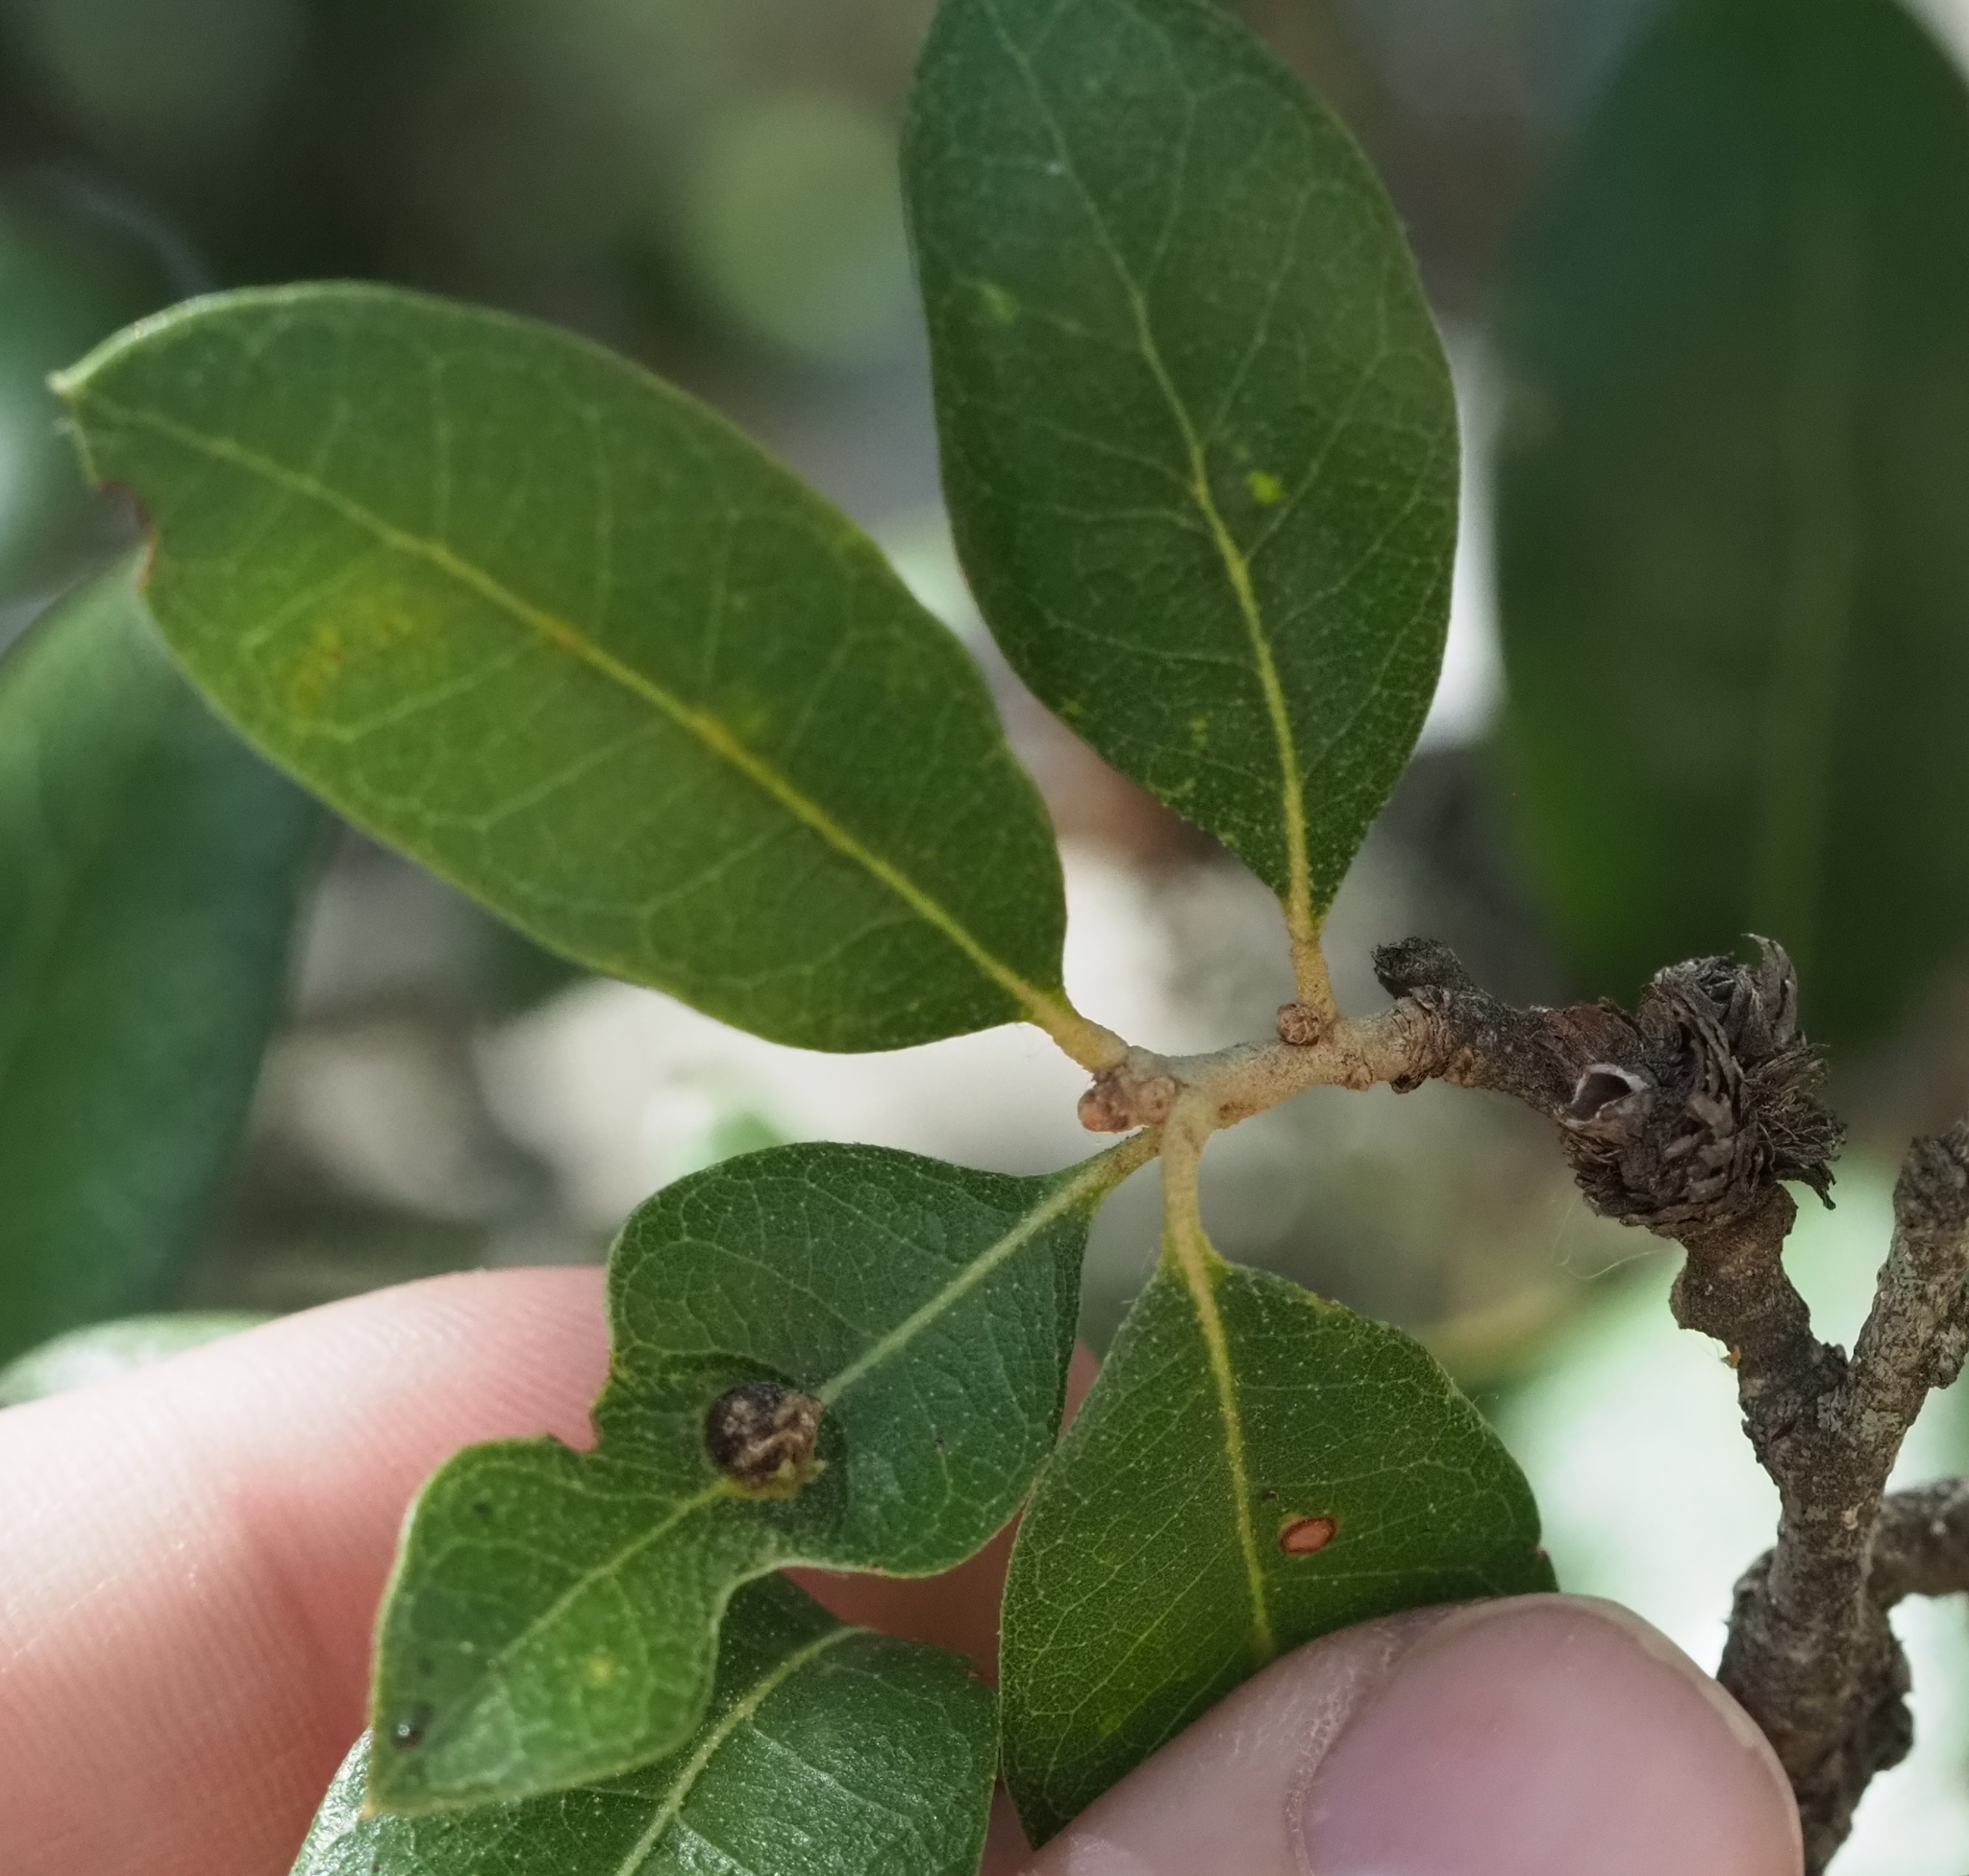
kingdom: Animalia
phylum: Arthropoda
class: Insecta
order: Hymenoptera
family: Cynipidae
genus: Andricus
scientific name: Andricus quercusfoliatus
